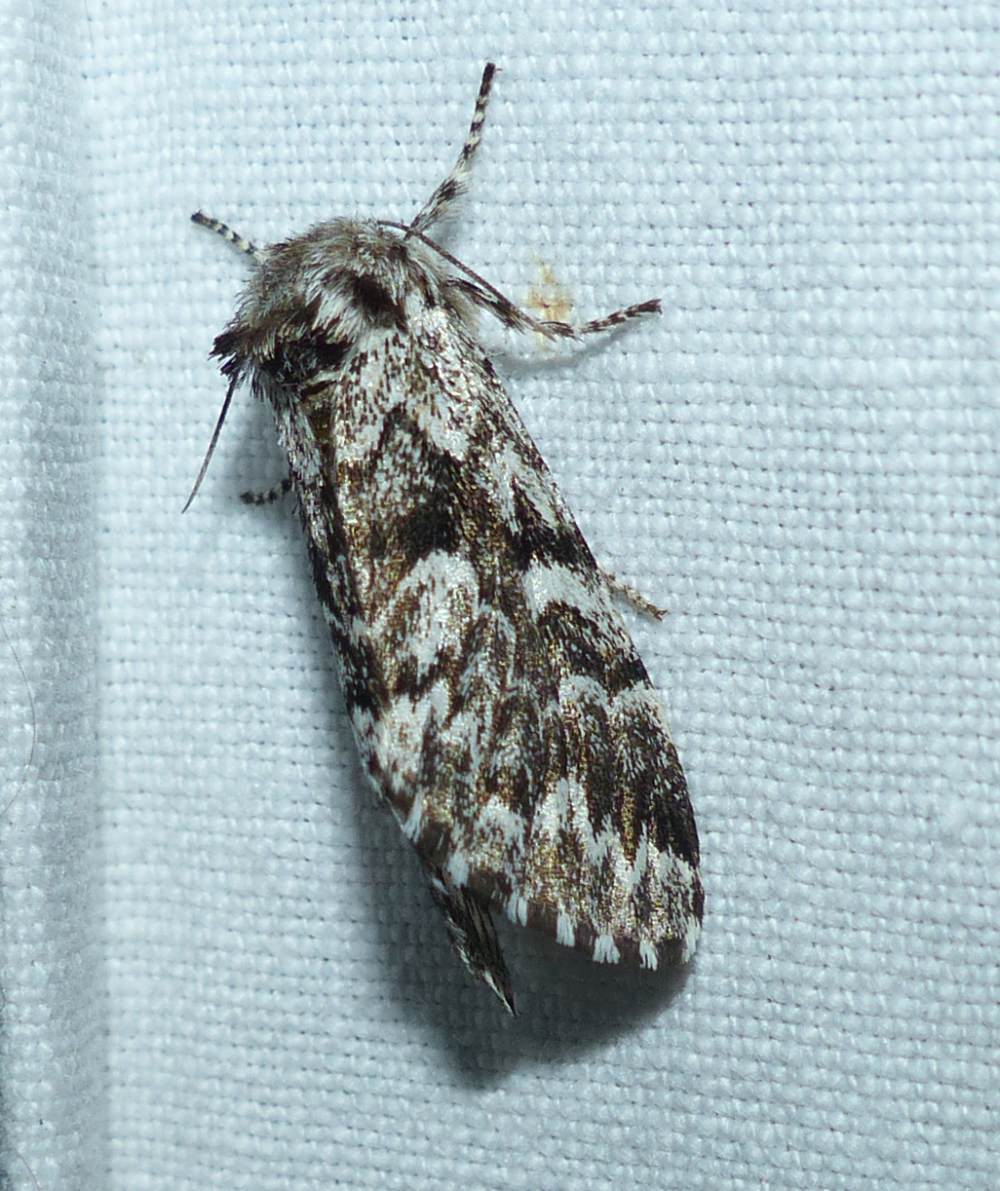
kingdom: Animalia
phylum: Arthropoda
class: Insecta
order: Lepidoptera
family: Noctuidae
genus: Panthea
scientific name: Panthea acronyctoides
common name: Black zigzag moth
